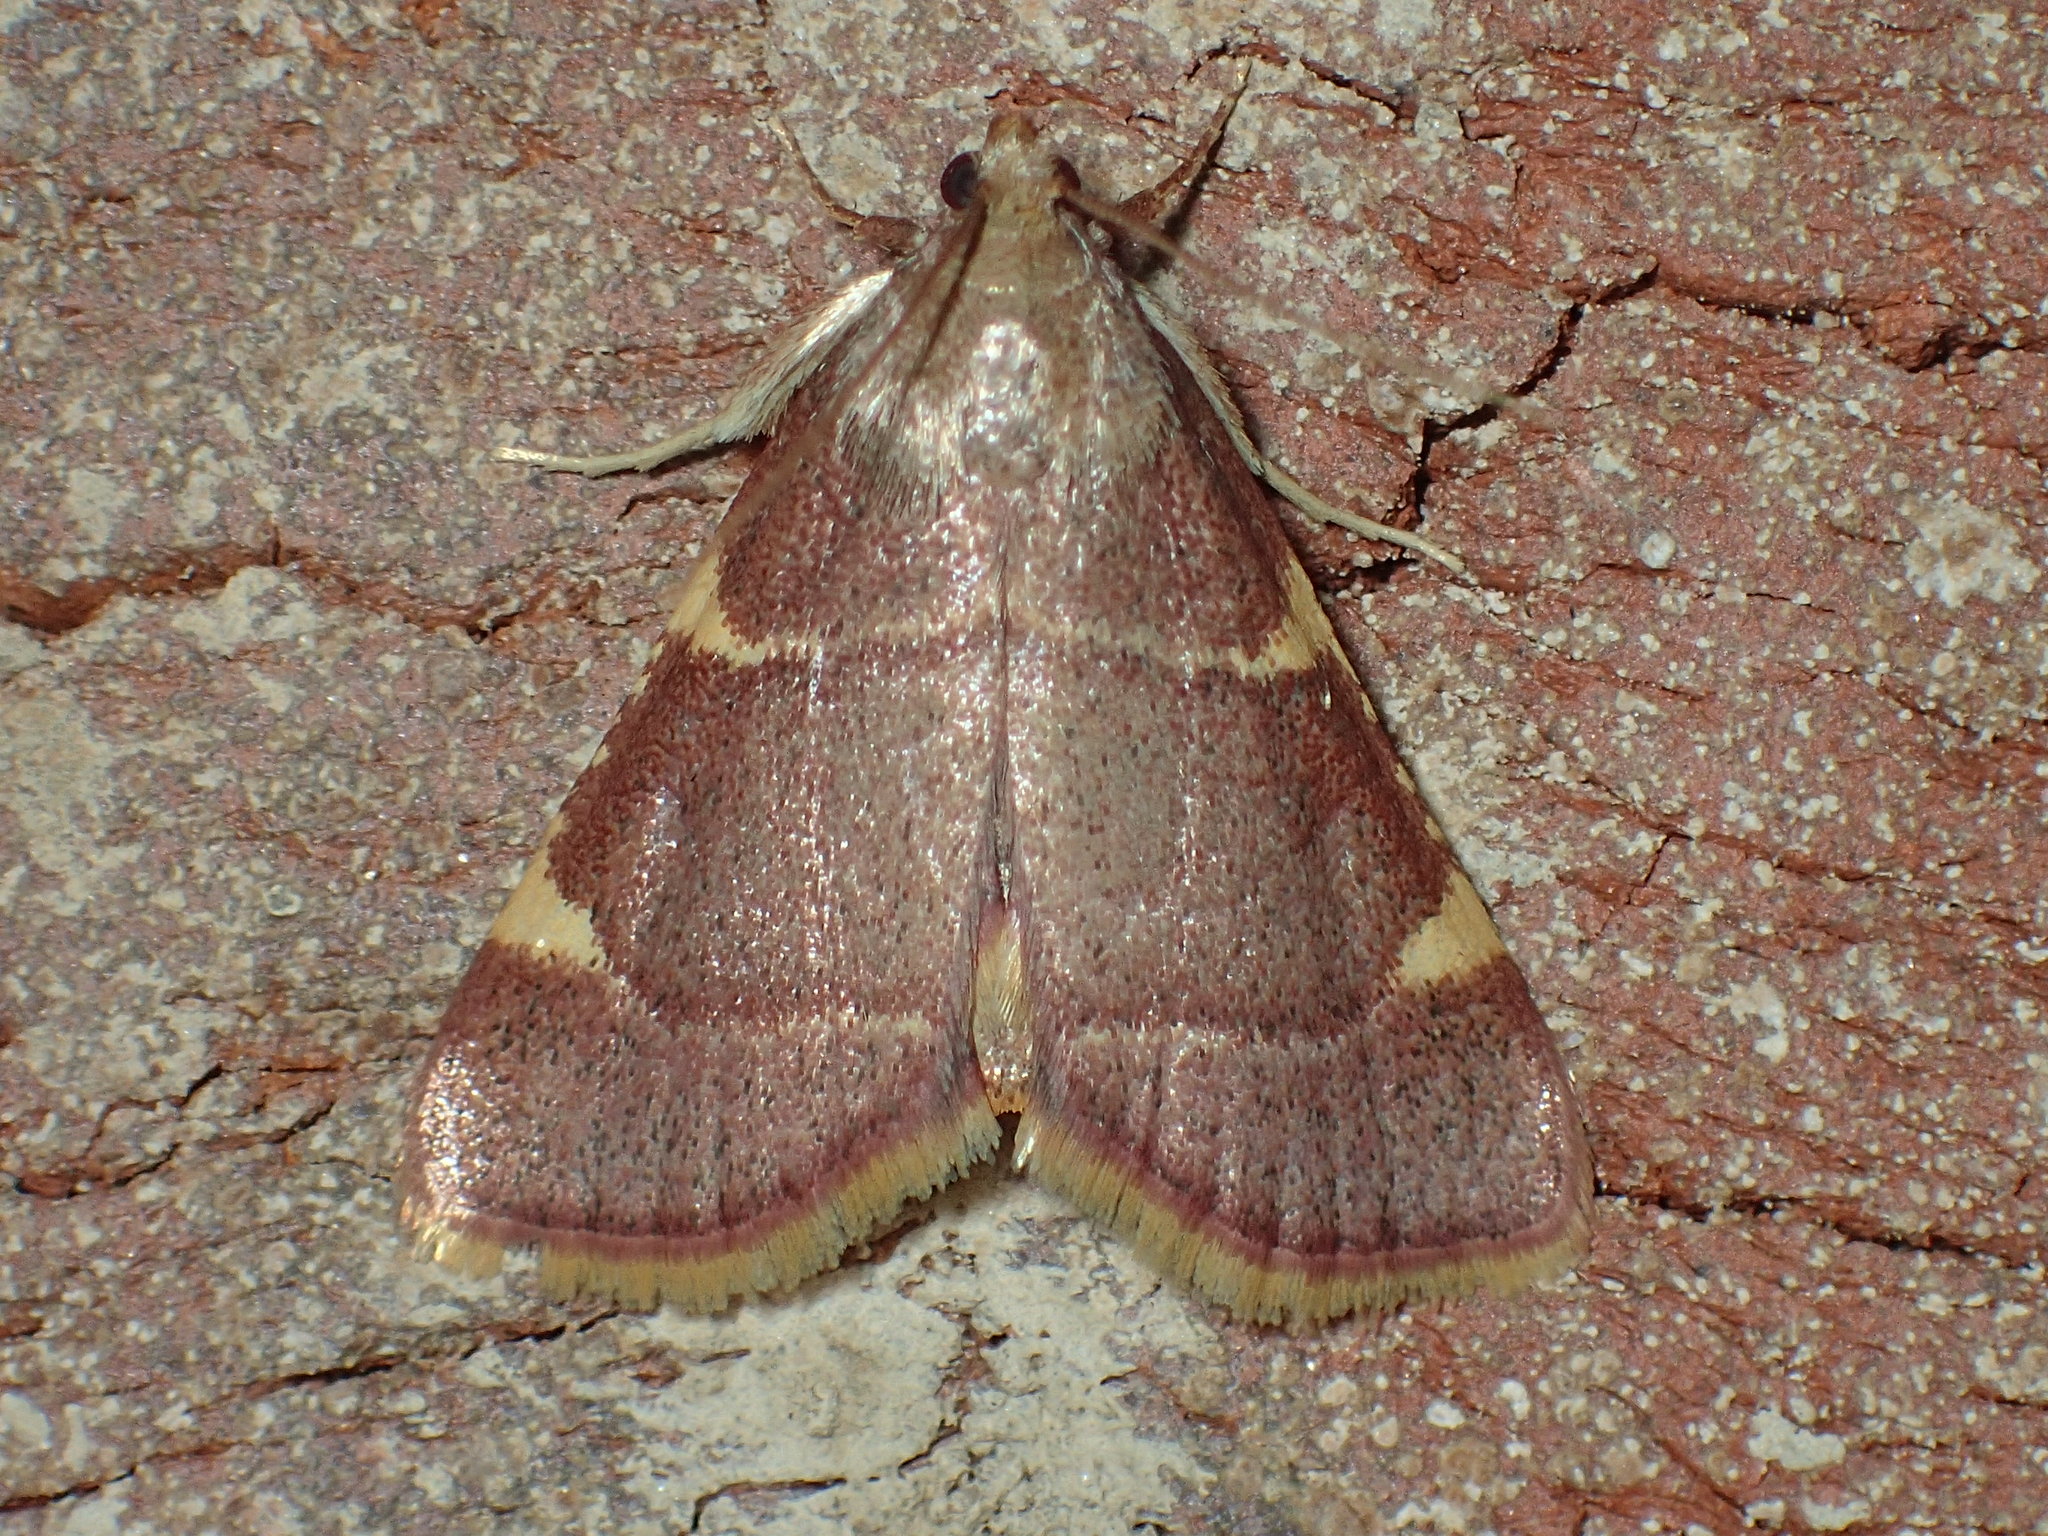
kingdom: Animalia
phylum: Arthropoda
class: Insecta
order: Lepidoptera
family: Pyralidae
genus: Hypsopygia
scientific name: Hypsopygia olinalis
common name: Yellow-fringed dolichomia moth
